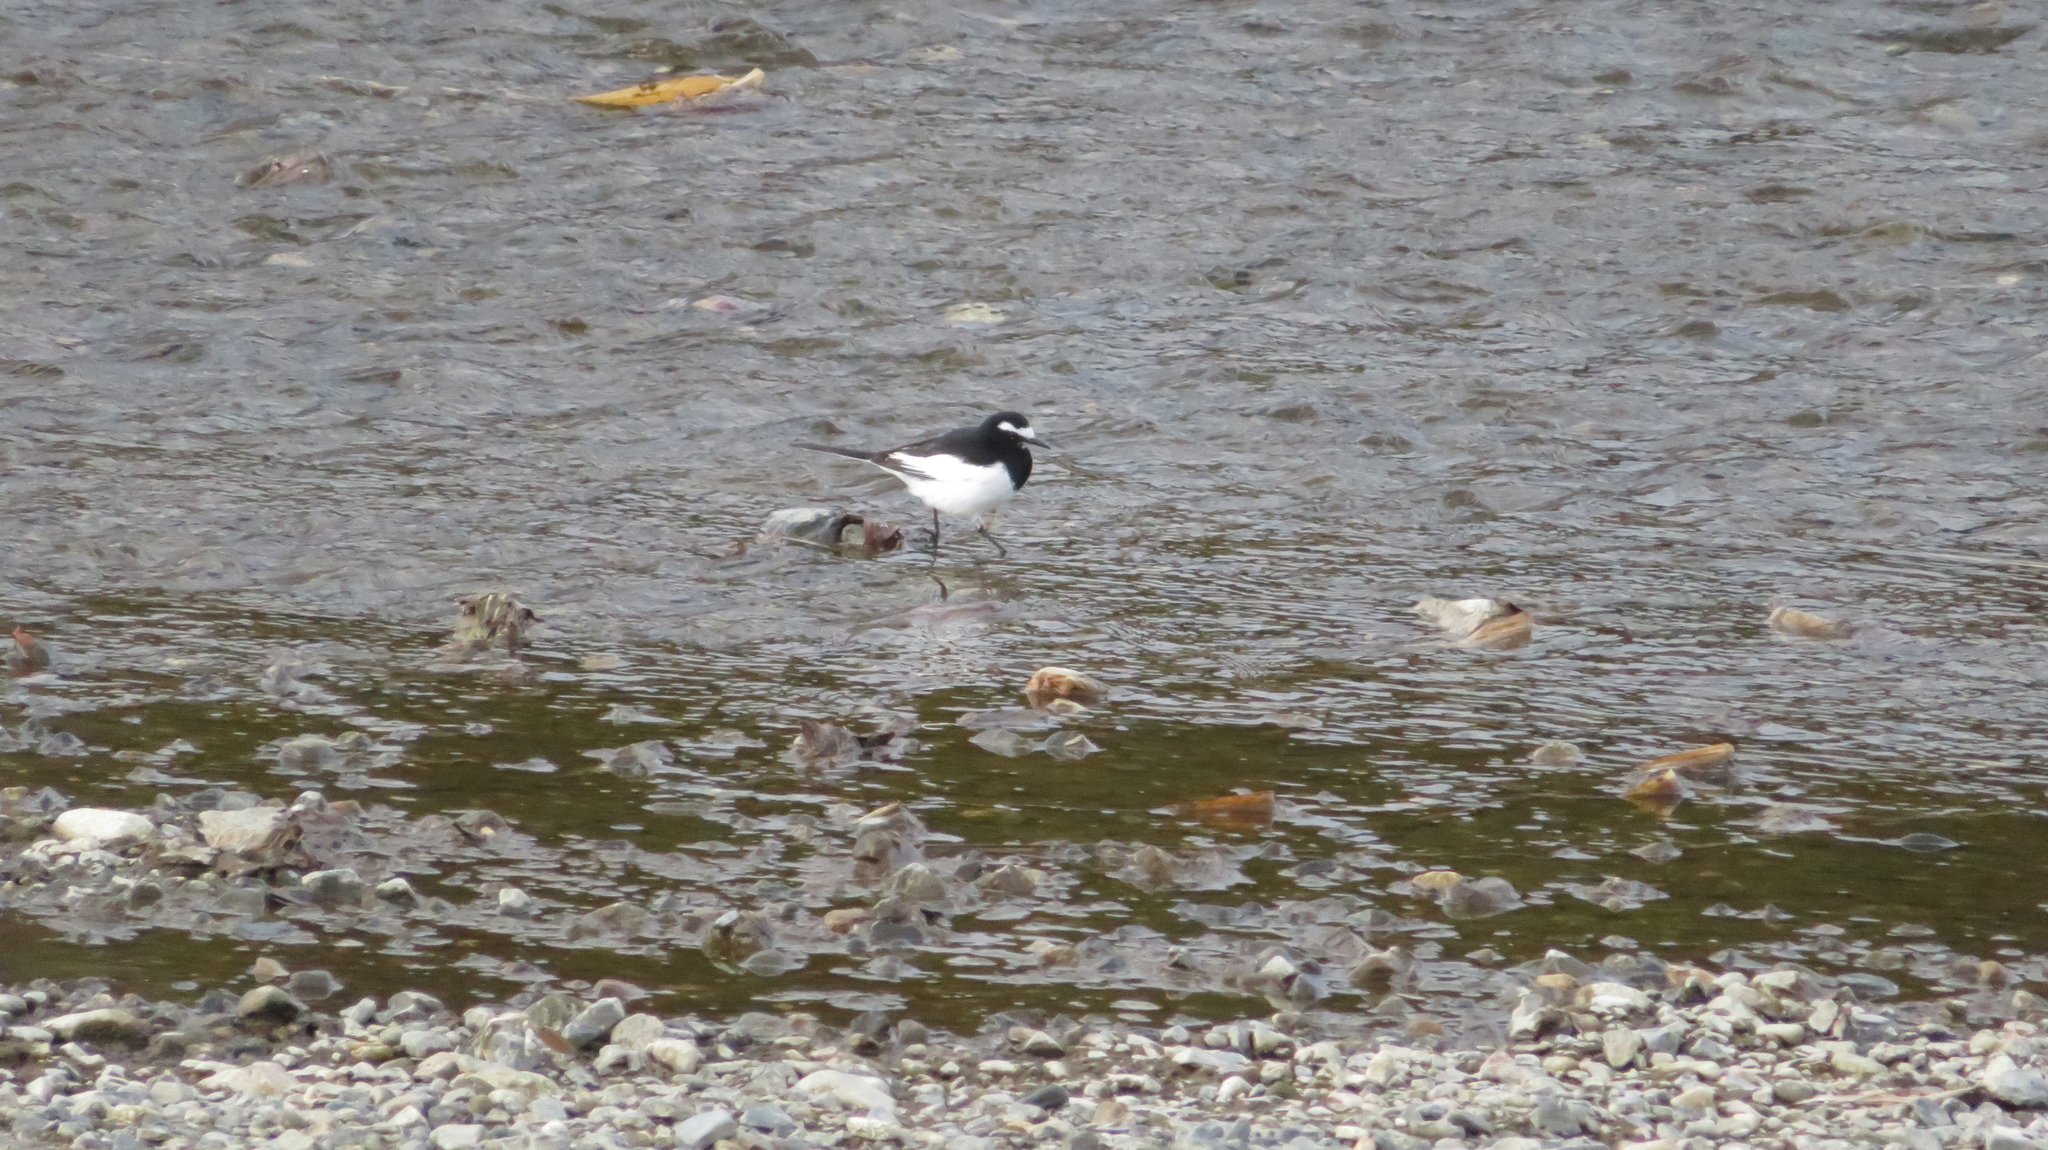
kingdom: Animalia
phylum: Chordata
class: Aves
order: Passeriformes
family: Motacillidae
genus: Motacilla
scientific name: Motacilla grandis
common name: Japanese wagtail
